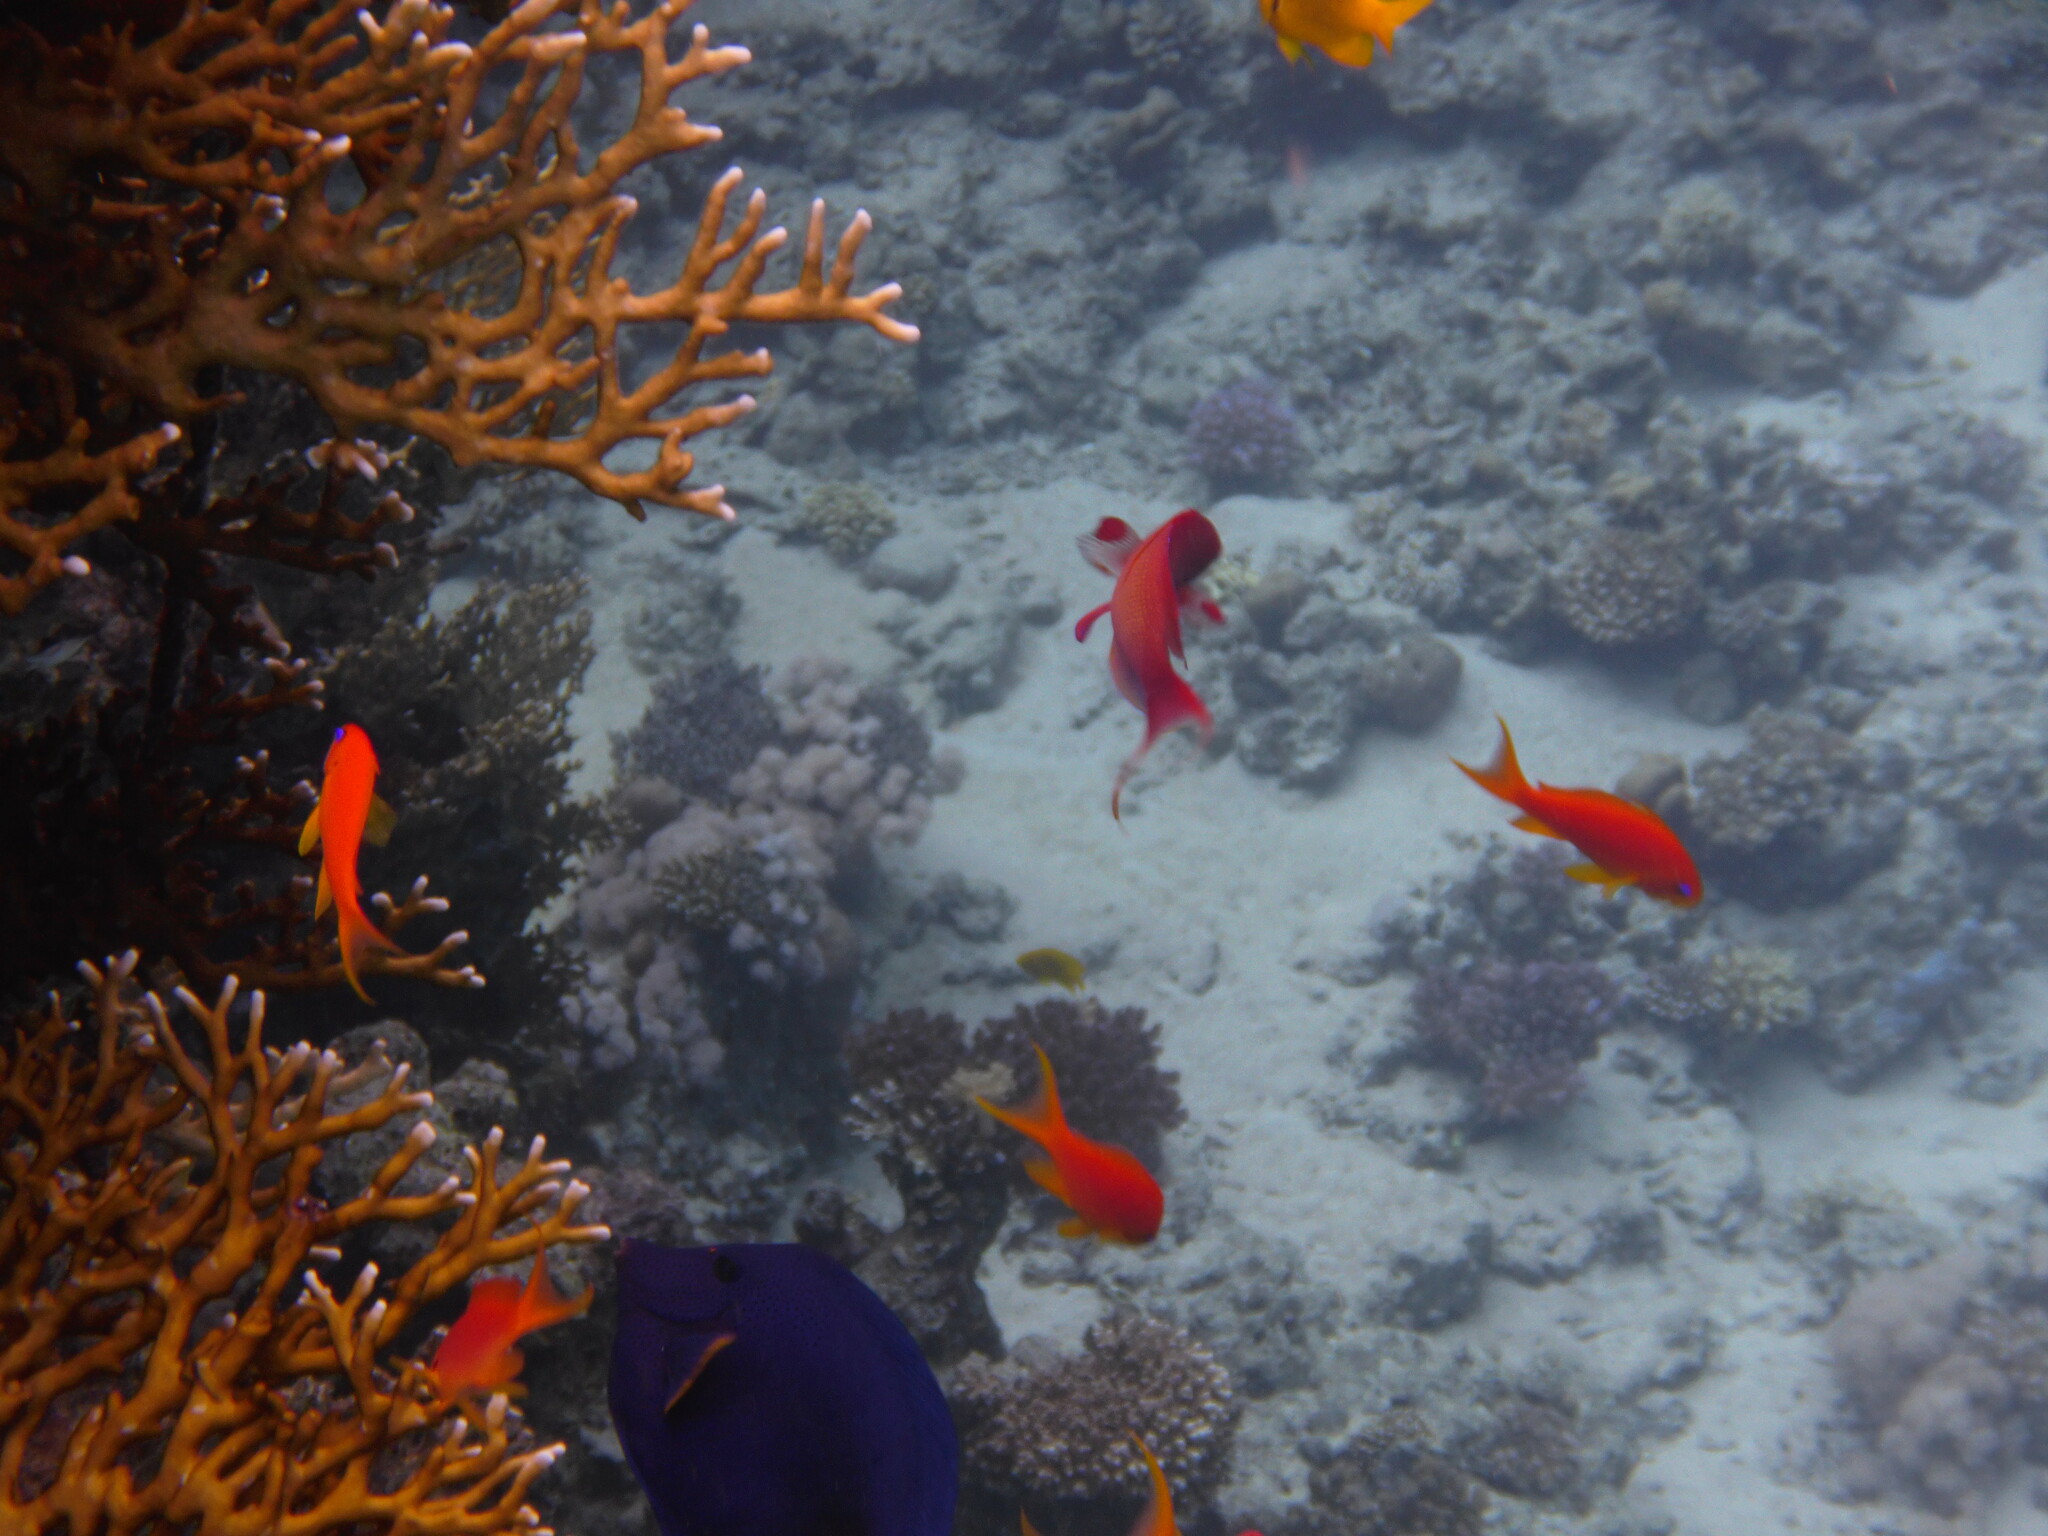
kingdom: Animalia
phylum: Chordata
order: Perciformes
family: Serranidae
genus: Pseudanthias
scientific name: Pseudanthias squamipinnis
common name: Scalefin anthias
